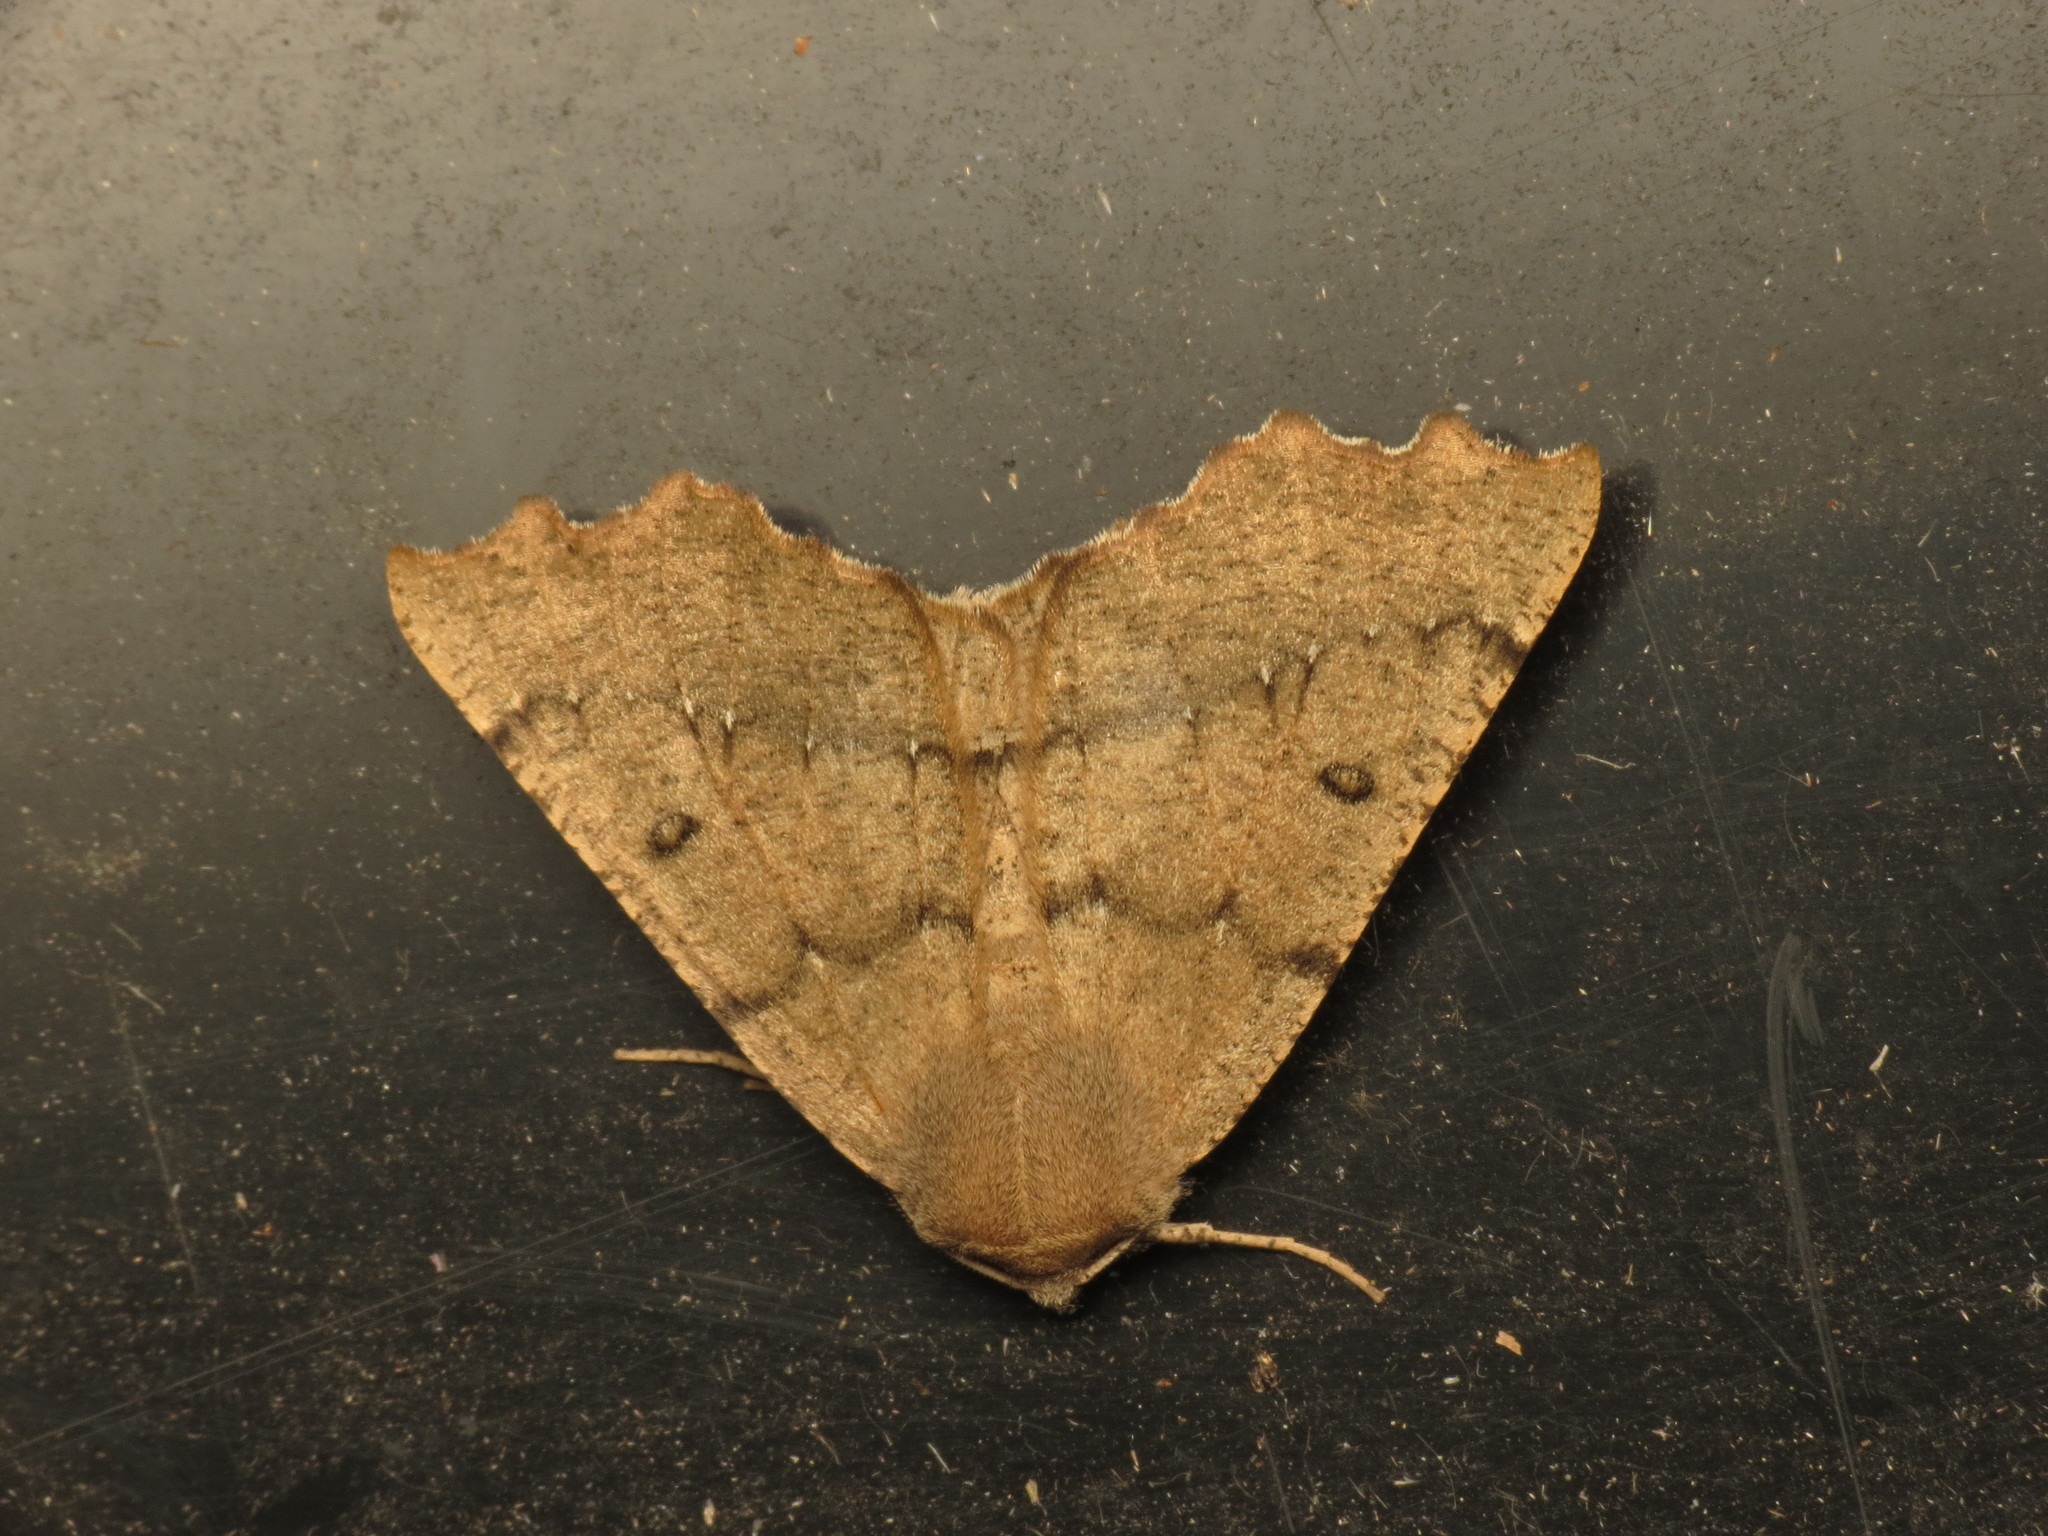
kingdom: Animalia
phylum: Arthropoda
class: Insecta
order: Lepidoptera
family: Geometridae
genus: Odontopera
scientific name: Odontopera bidentata
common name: Scalloped hazel
